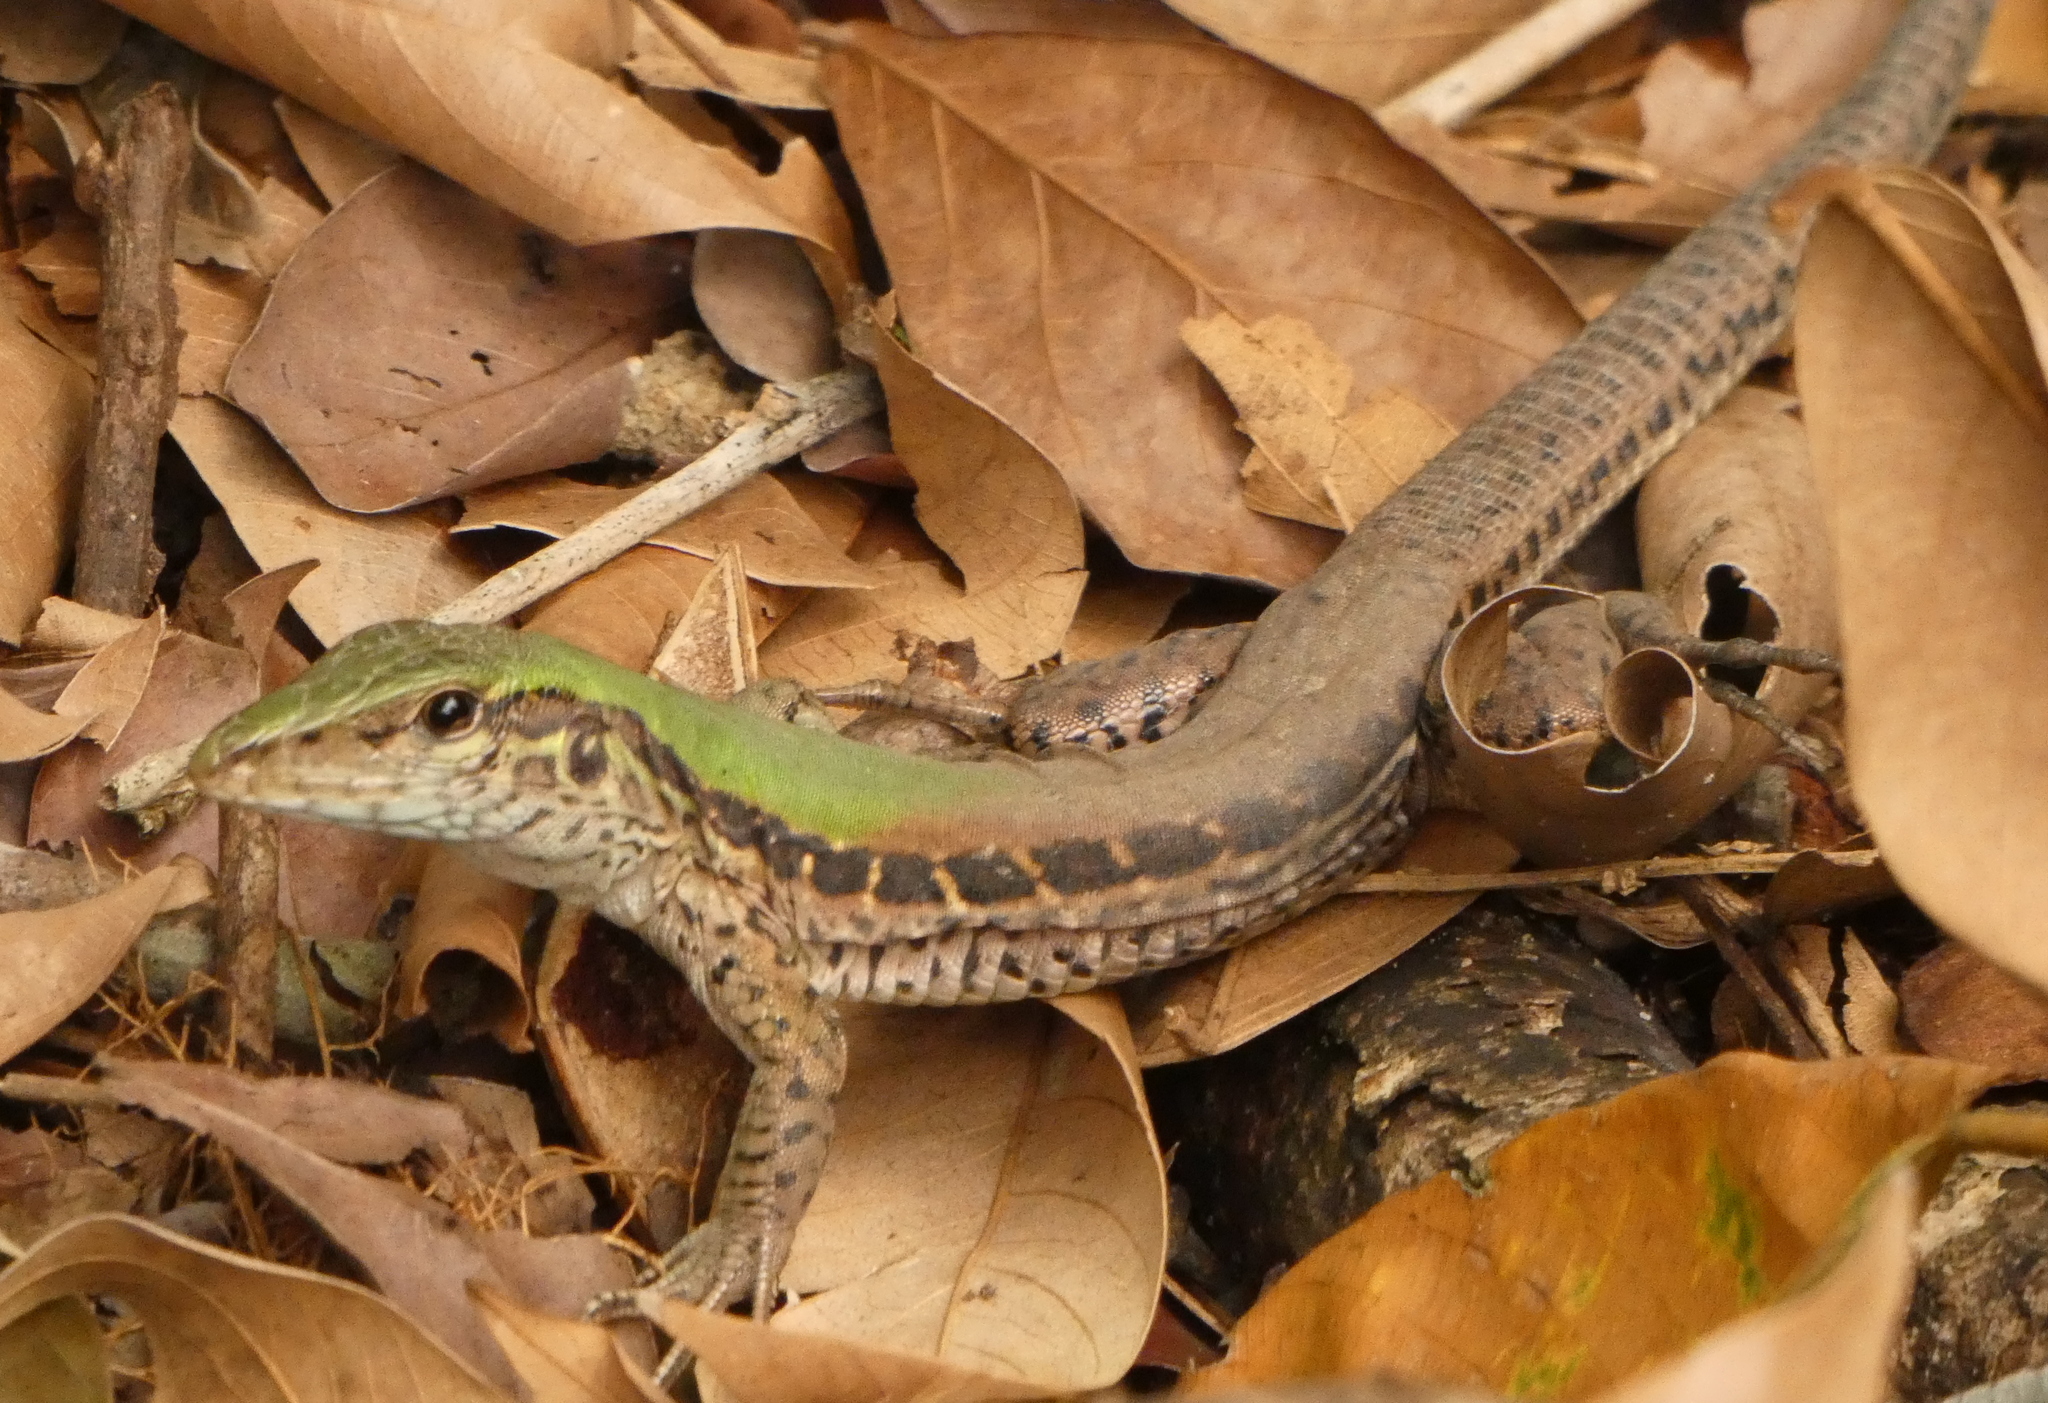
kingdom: Animalia
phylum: Chordata
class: Squamata
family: Teiidae
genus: Ameiva
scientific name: Ameiva ameiva
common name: Giant ameiva
